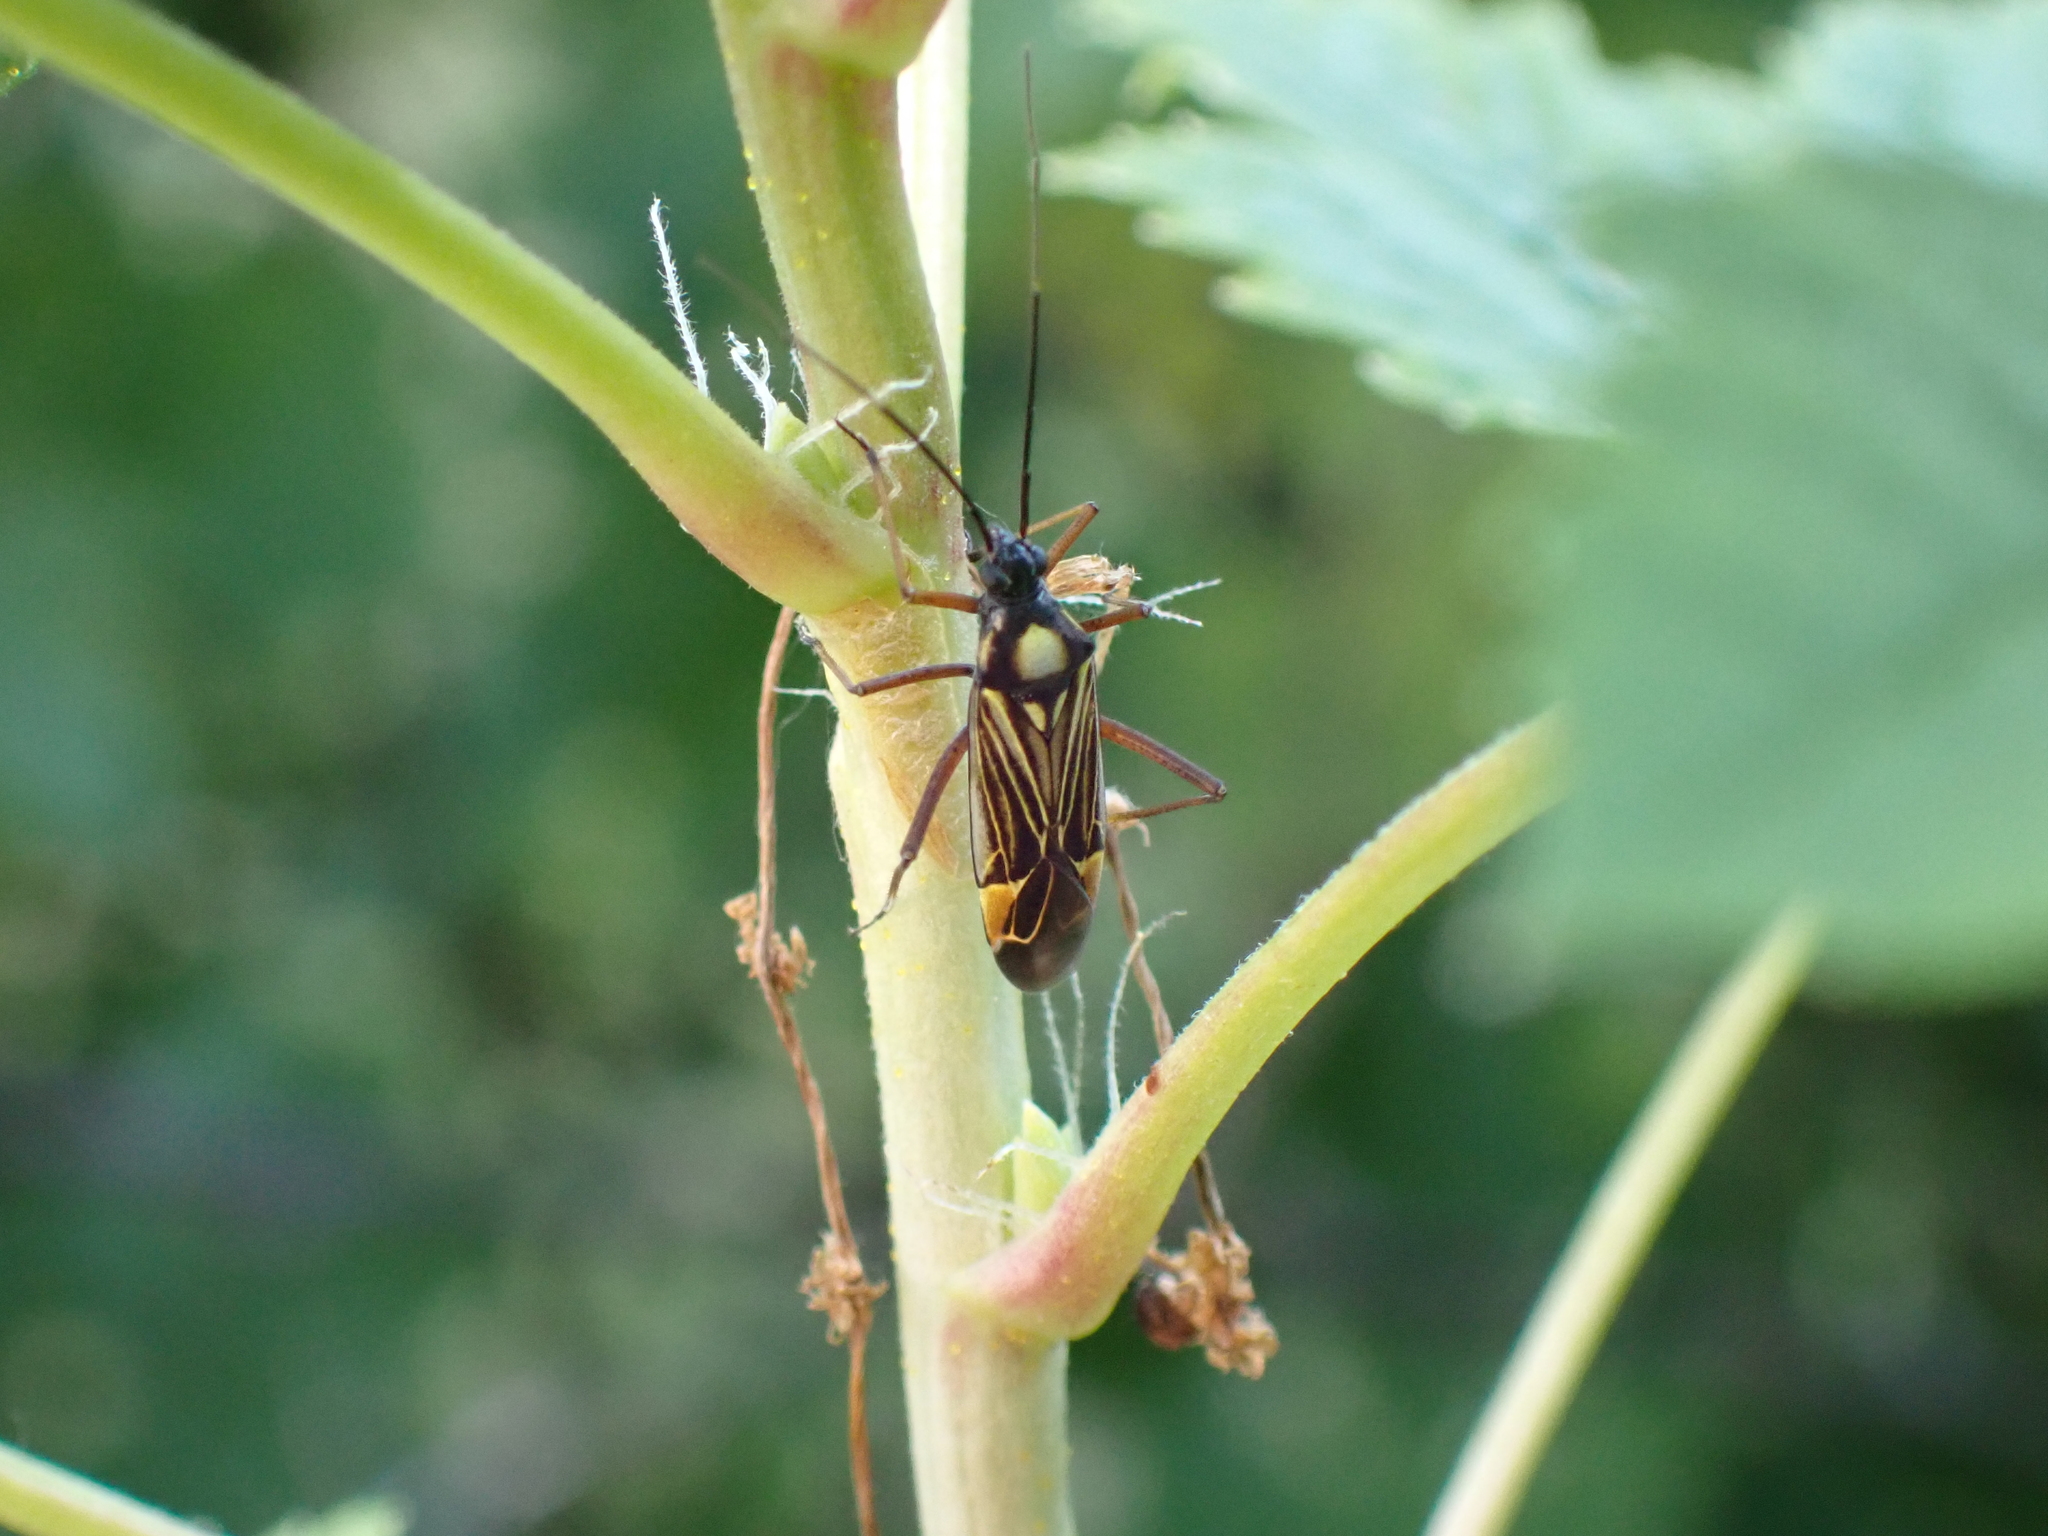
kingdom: Animalia
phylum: Arthropoda
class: Insecta
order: Hemiptera
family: Miridae
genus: Miris
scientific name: Miris striatus
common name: Fine streaked bugkin
